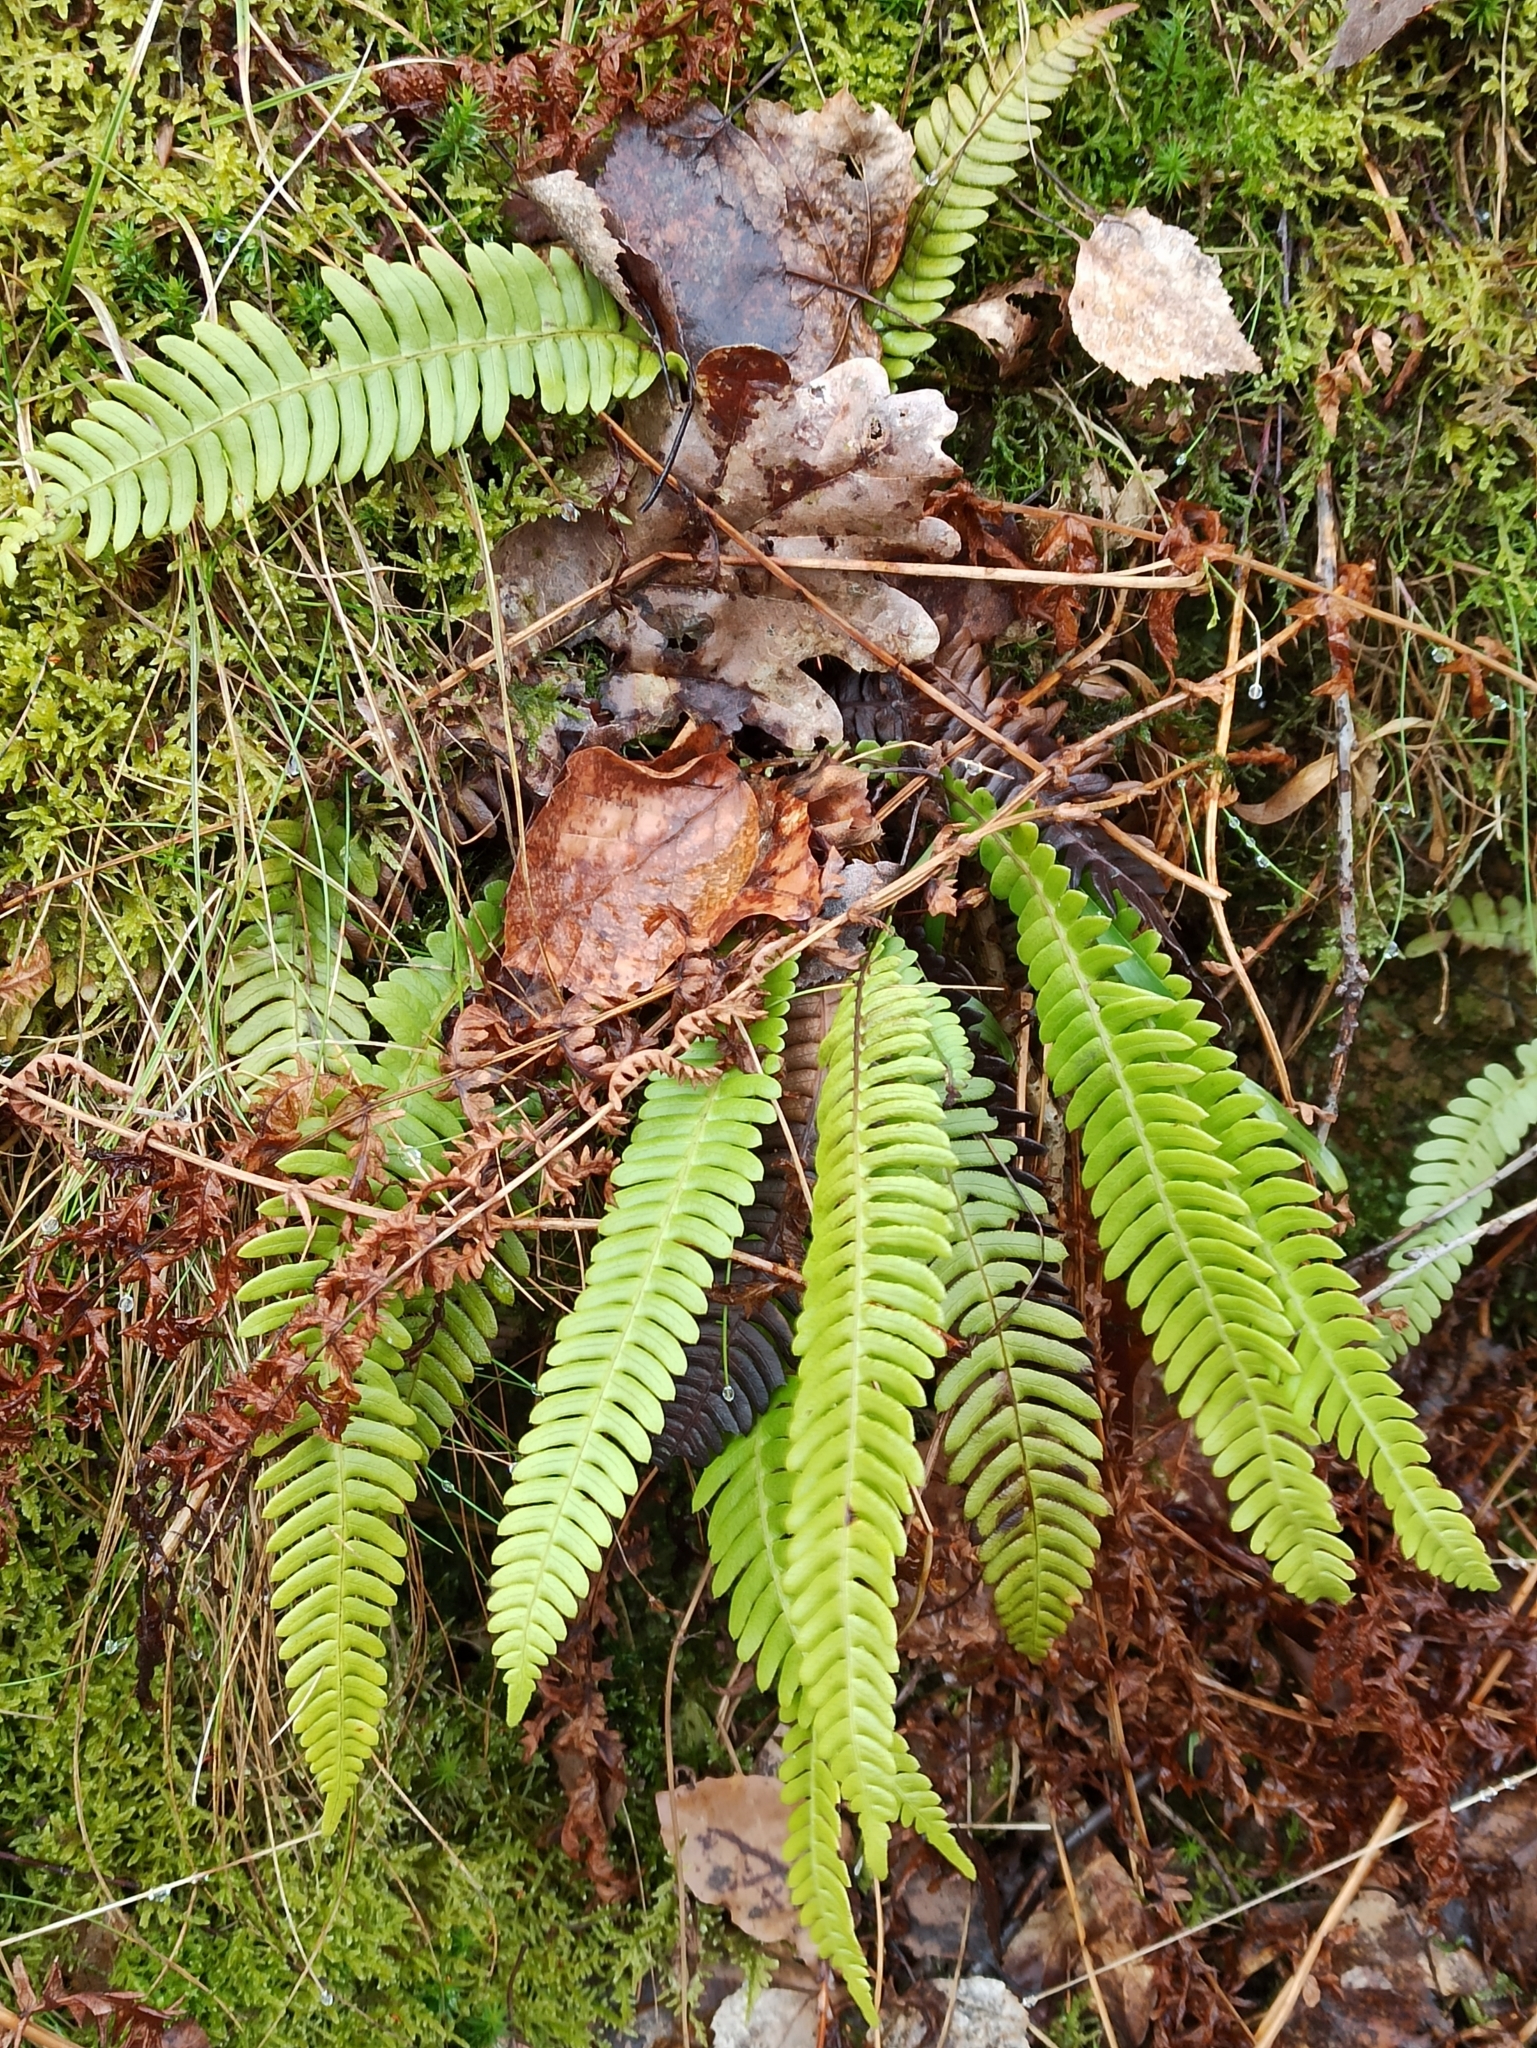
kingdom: Plantae
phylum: Tracheophyta
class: Polypodiopsida
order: Polypodiales
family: Blechnaceae
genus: Struthiopteris
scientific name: Struthiopteris spicant
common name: Deer fern
